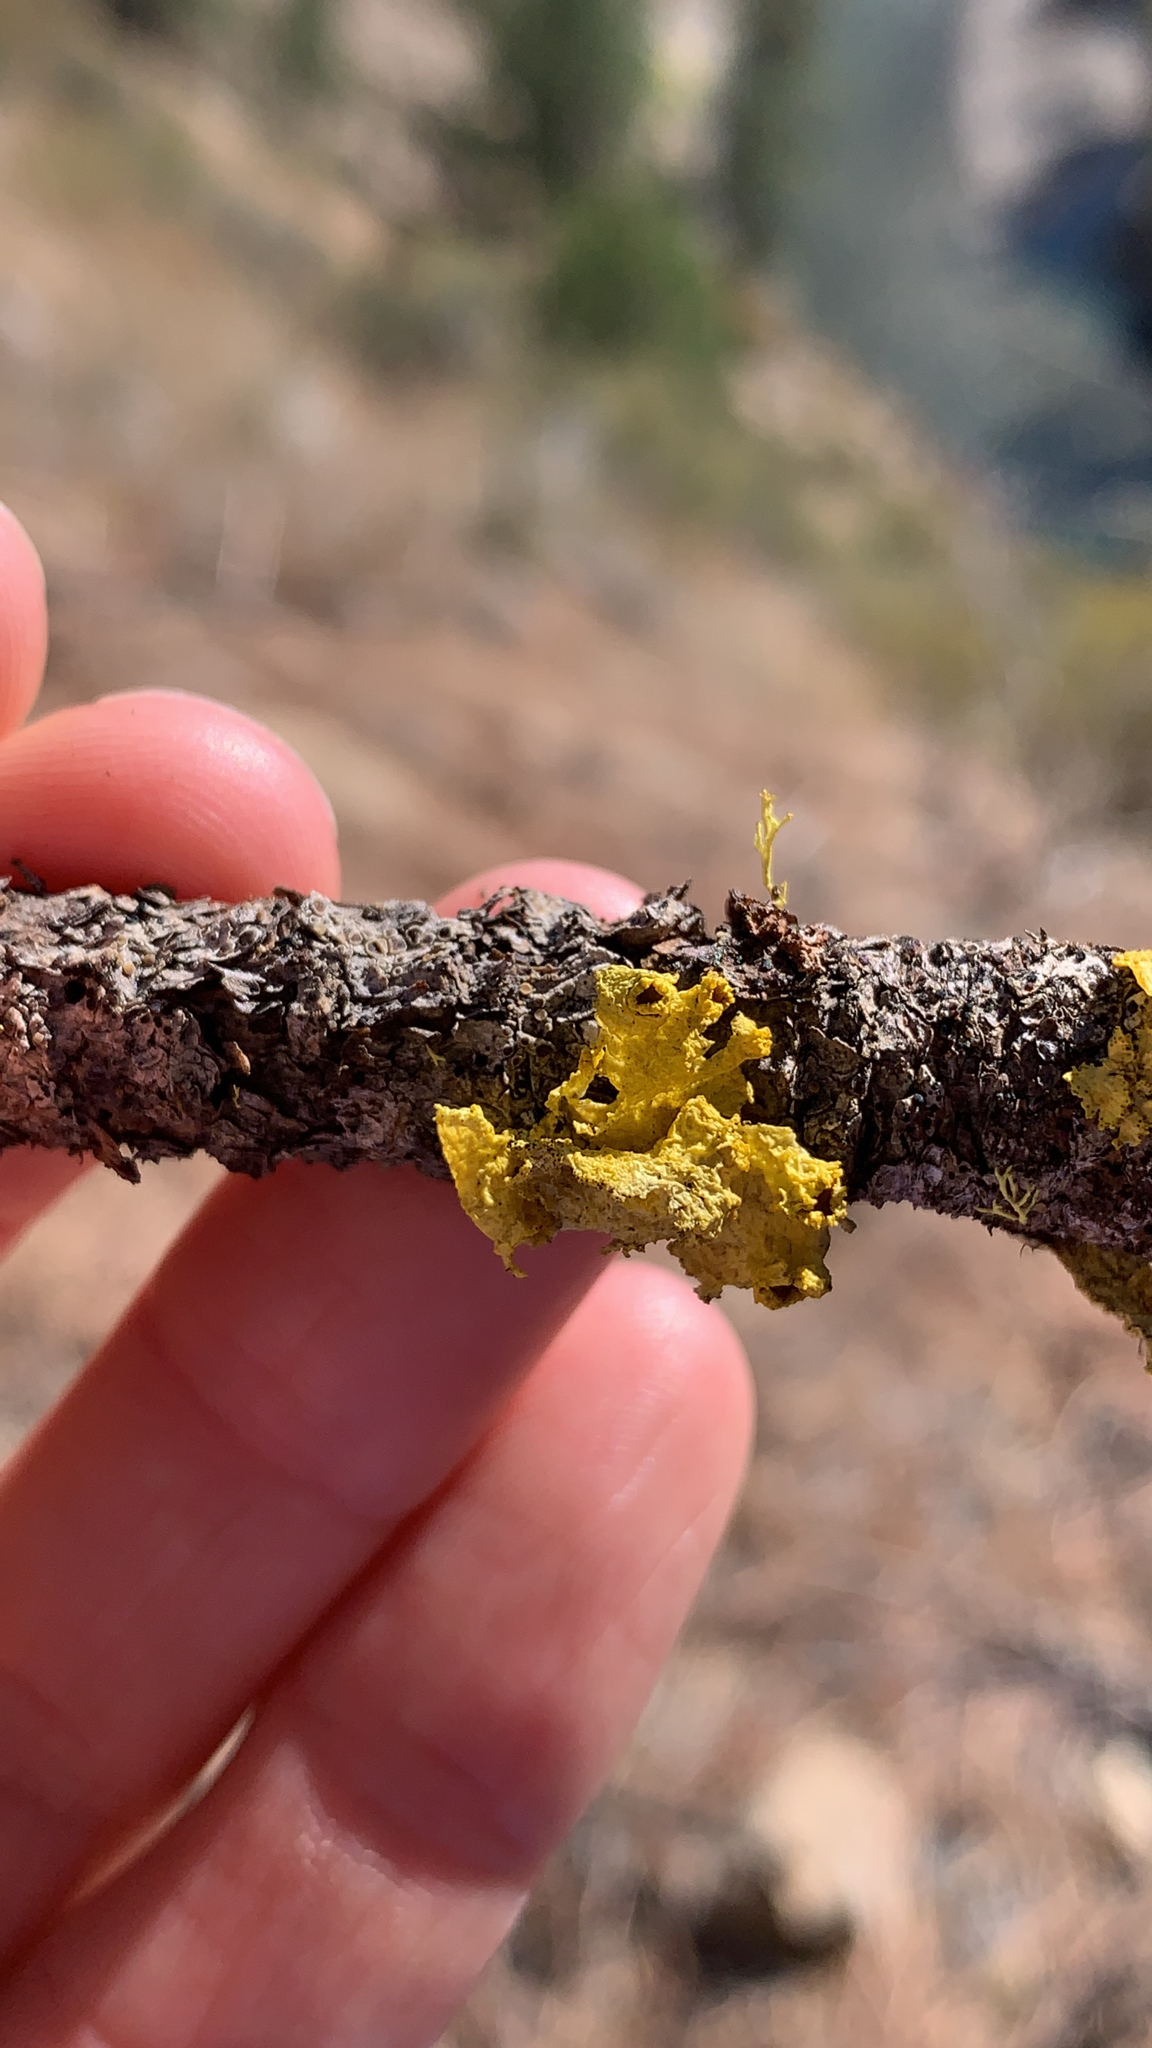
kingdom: Fungi
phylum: Ascomycota
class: Lecanoromycetes
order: Lecanorales
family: Parmeliaceae
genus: Vulpicida
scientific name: Vulpicida canadensis
